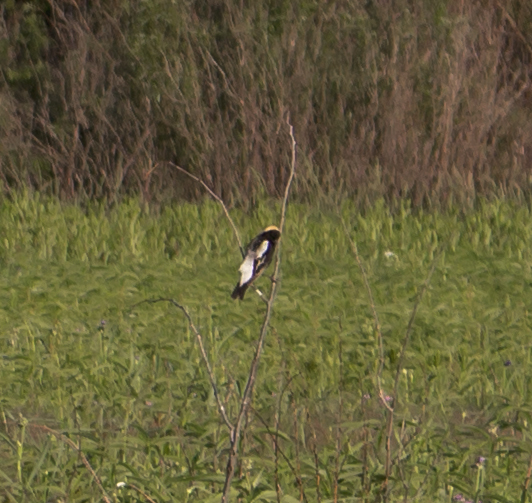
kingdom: Animalia
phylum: Chordata
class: Aves
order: Passeriformes
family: Icteridae
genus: Dolichonyx
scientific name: Dolichonyx oryzivorus
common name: Bobolink
